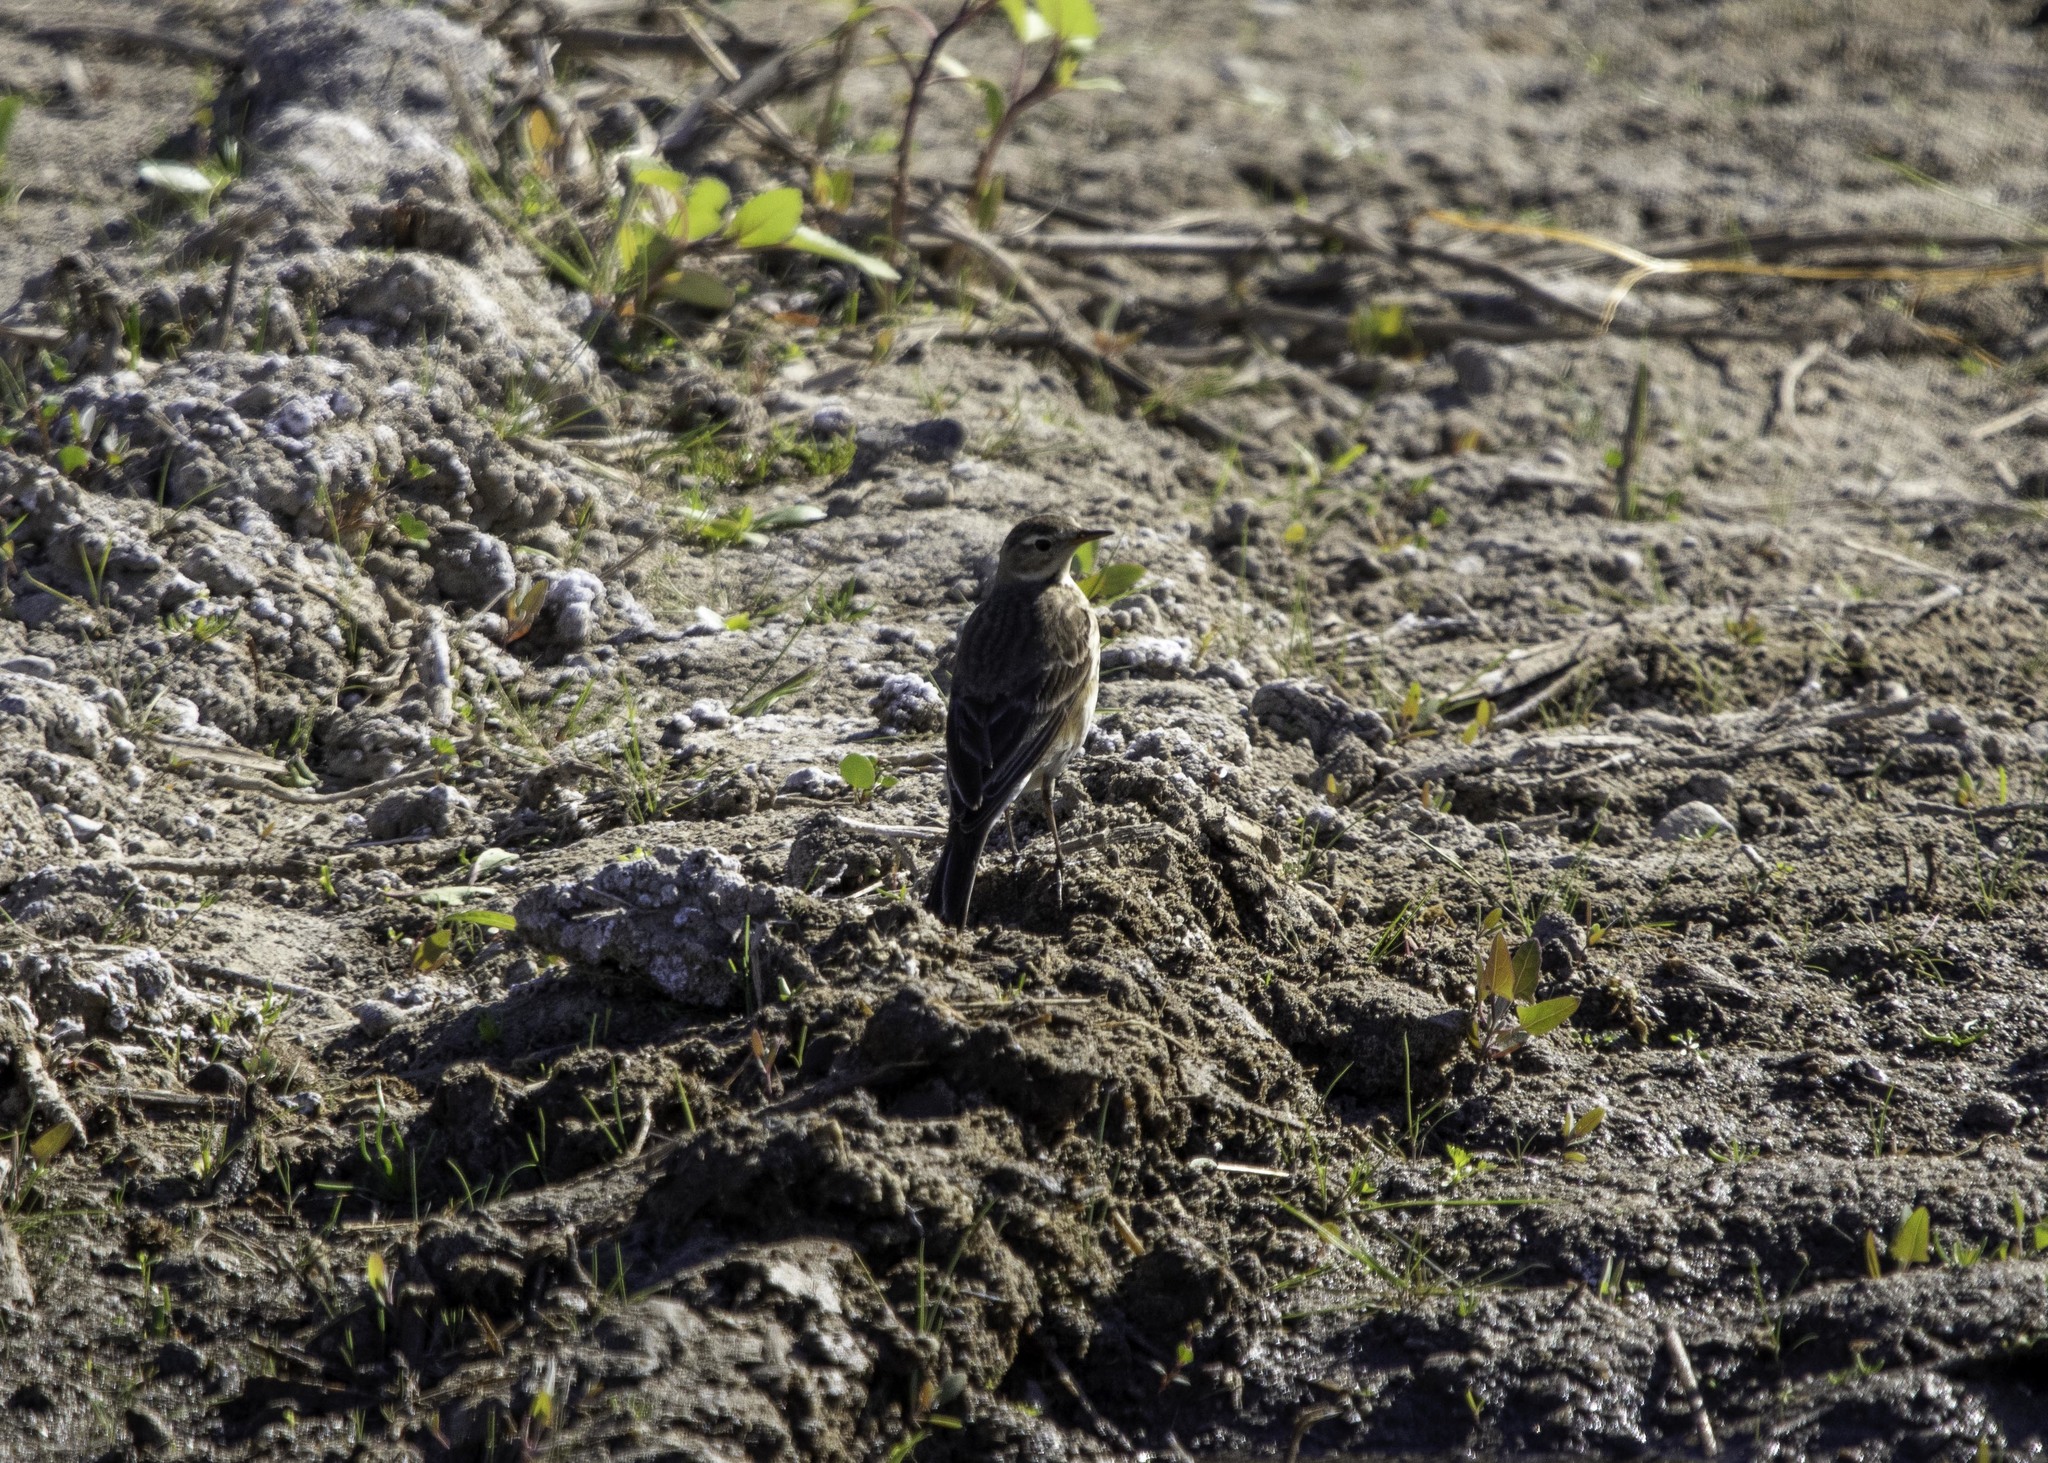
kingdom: Animalia
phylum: Chordata
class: Aves
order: Passeriformes
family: Motacillidae
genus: Anthus
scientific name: Anthus rubescens
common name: Buff-bellied pipit
